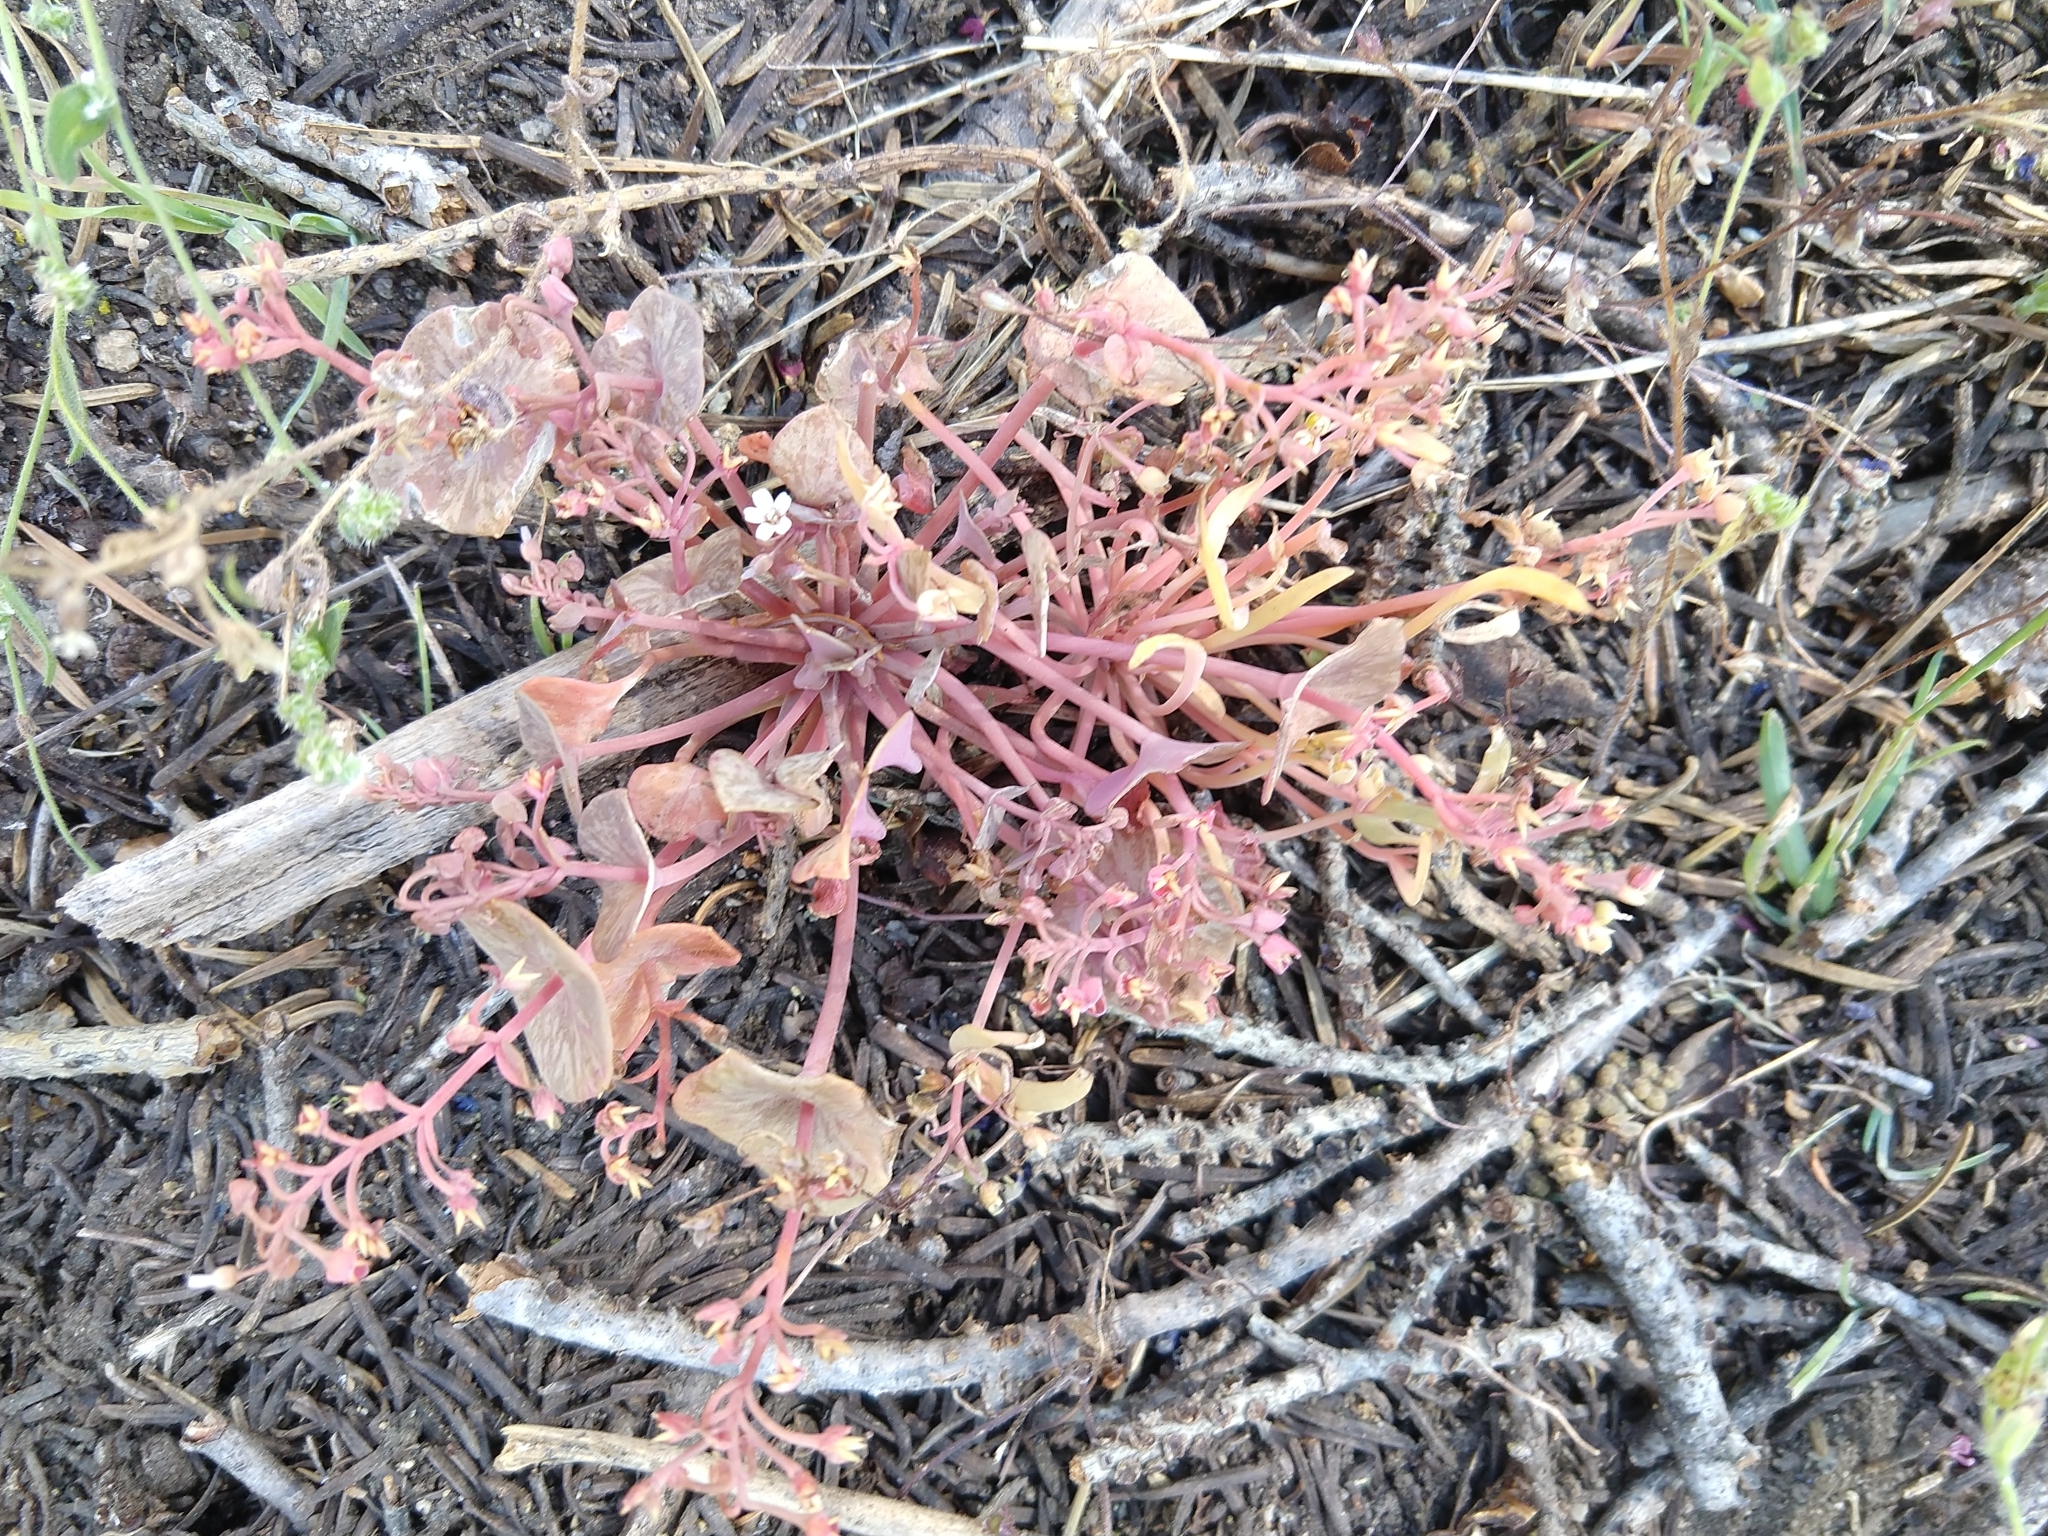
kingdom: Plantae
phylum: Tracheophyta
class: Magnoliopsida
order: Caryophyllales
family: Montiaceae
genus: Claytonia
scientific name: Claytonia parviflora
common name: Indian-lettuce
